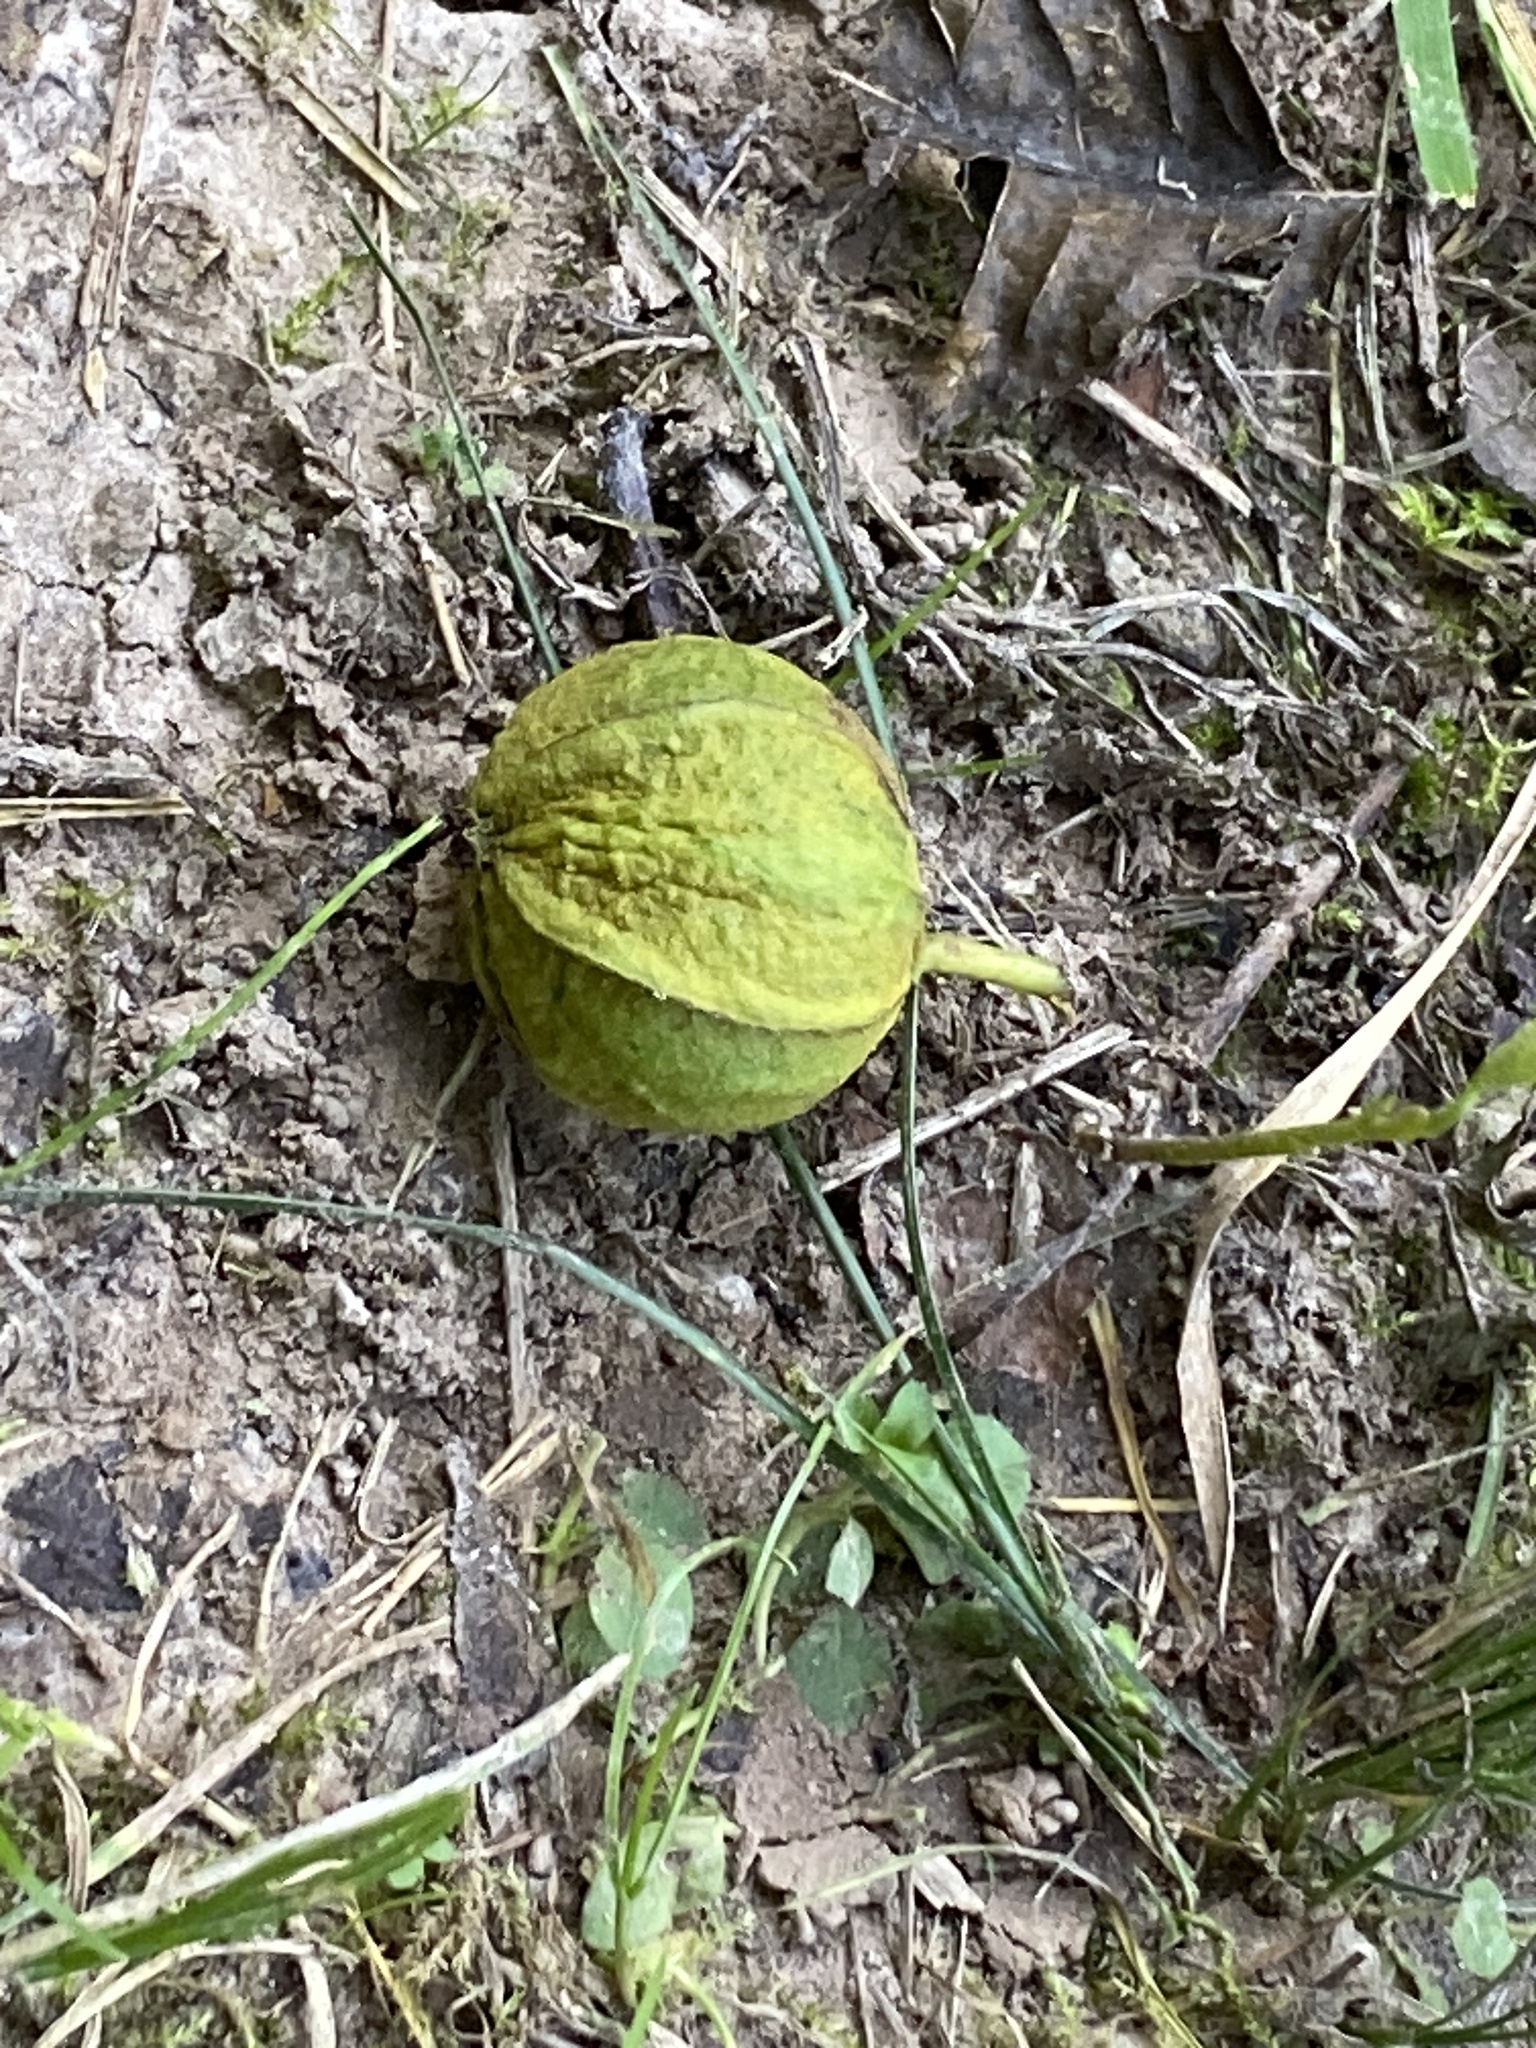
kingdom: Plantae
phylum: Tracheophyta
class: Magnoliopsida
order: Fagales
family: Juglandaceae
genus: Carya
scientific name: Carya cordiformis
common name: Bitternut hickory
